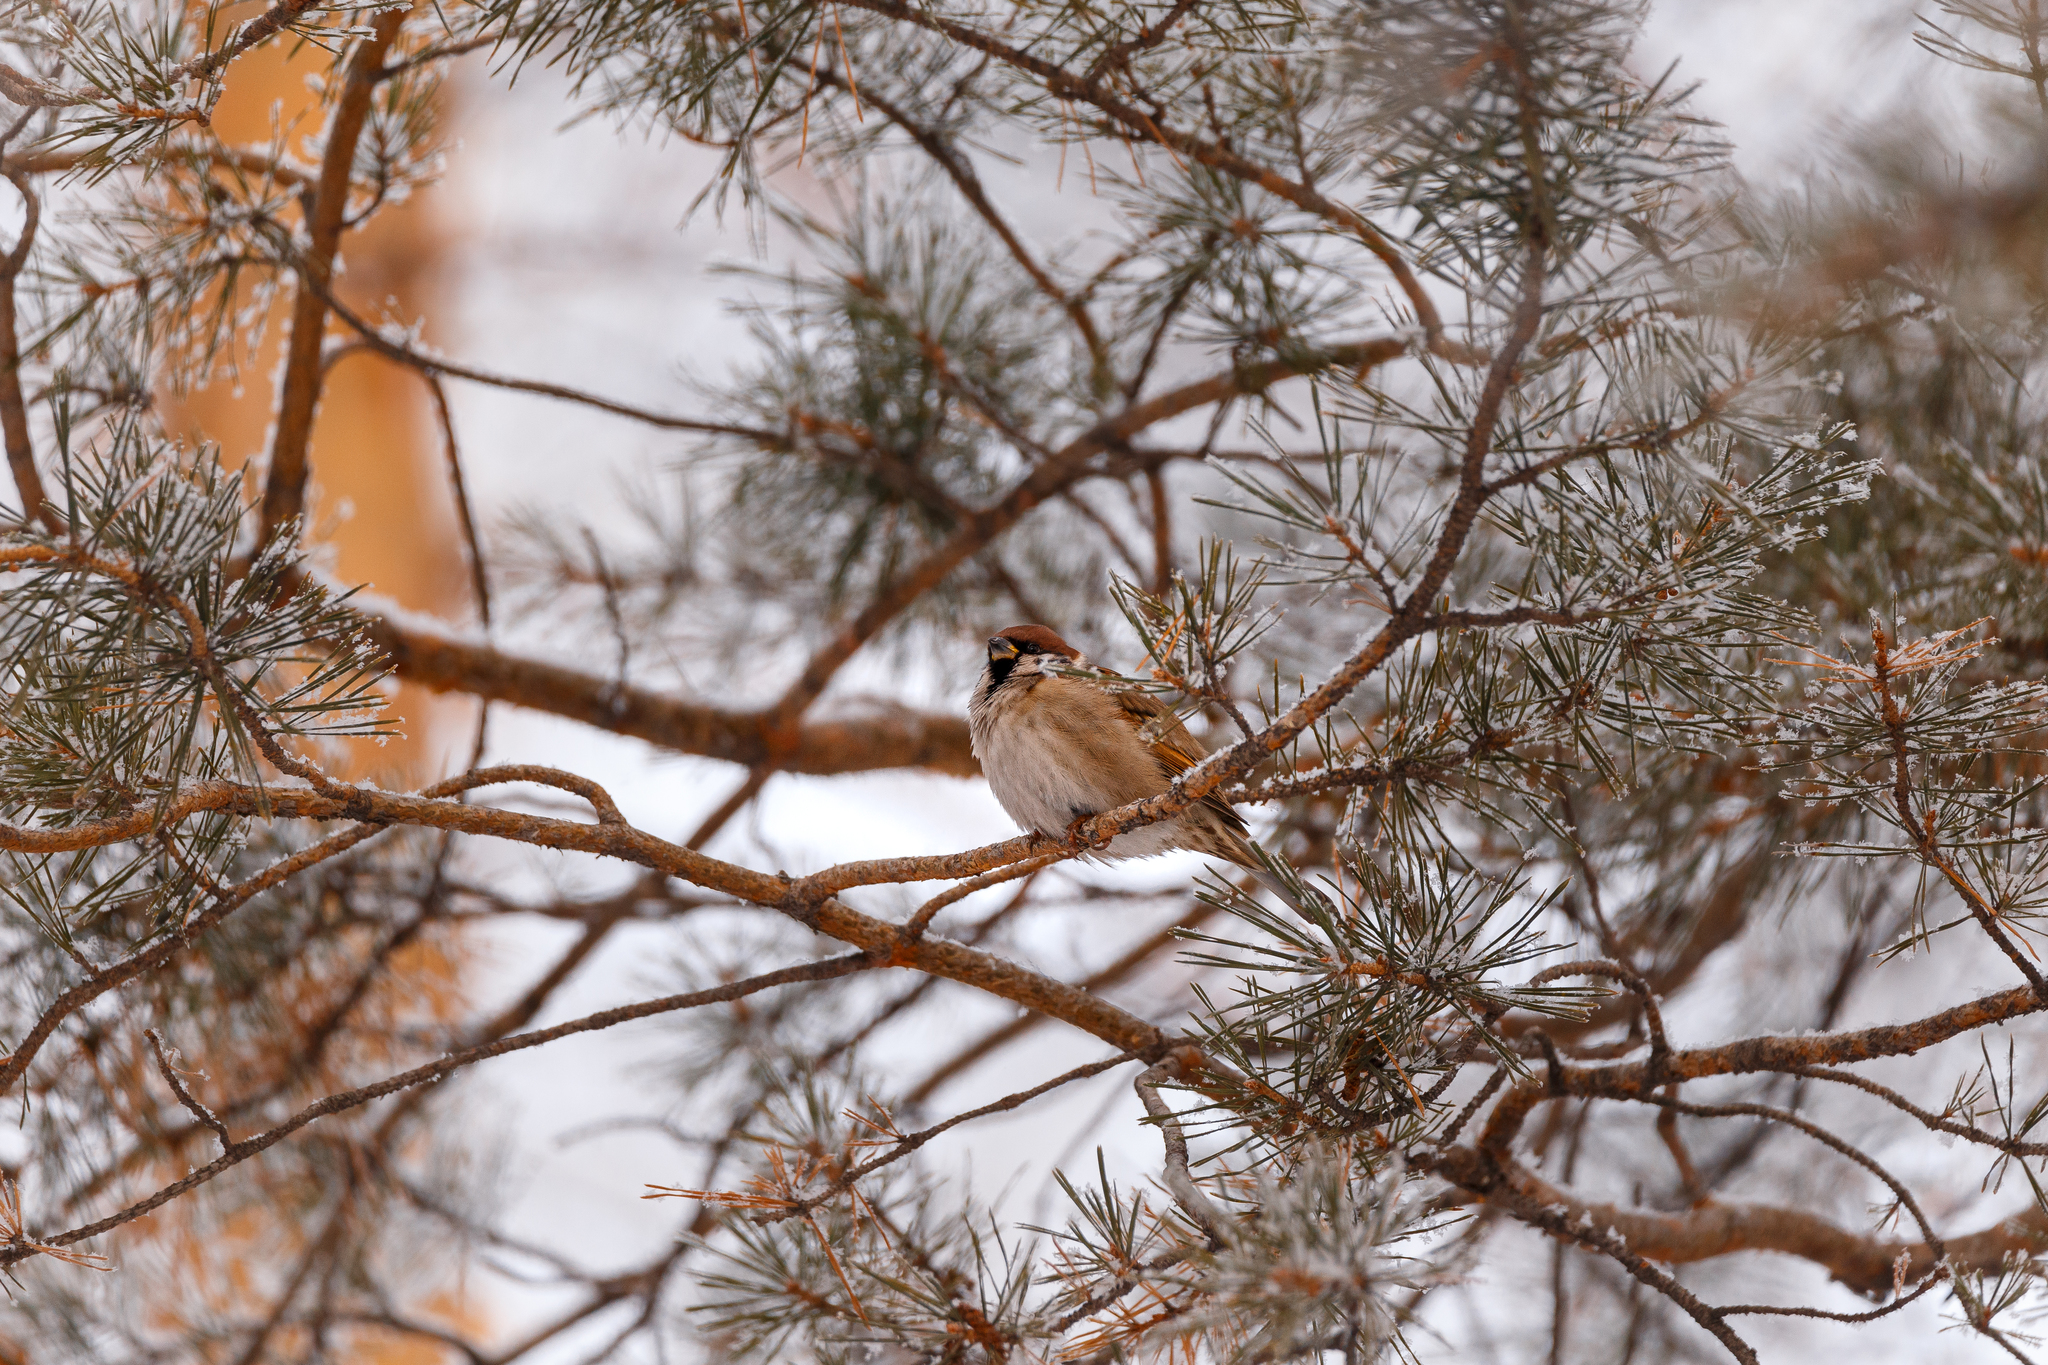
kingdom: Animalia
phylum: Chordata
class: Aves
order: Passeriformes
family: Passeridae
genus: Passer
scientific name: Passer montanus
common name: Eurasian tree sparrow
